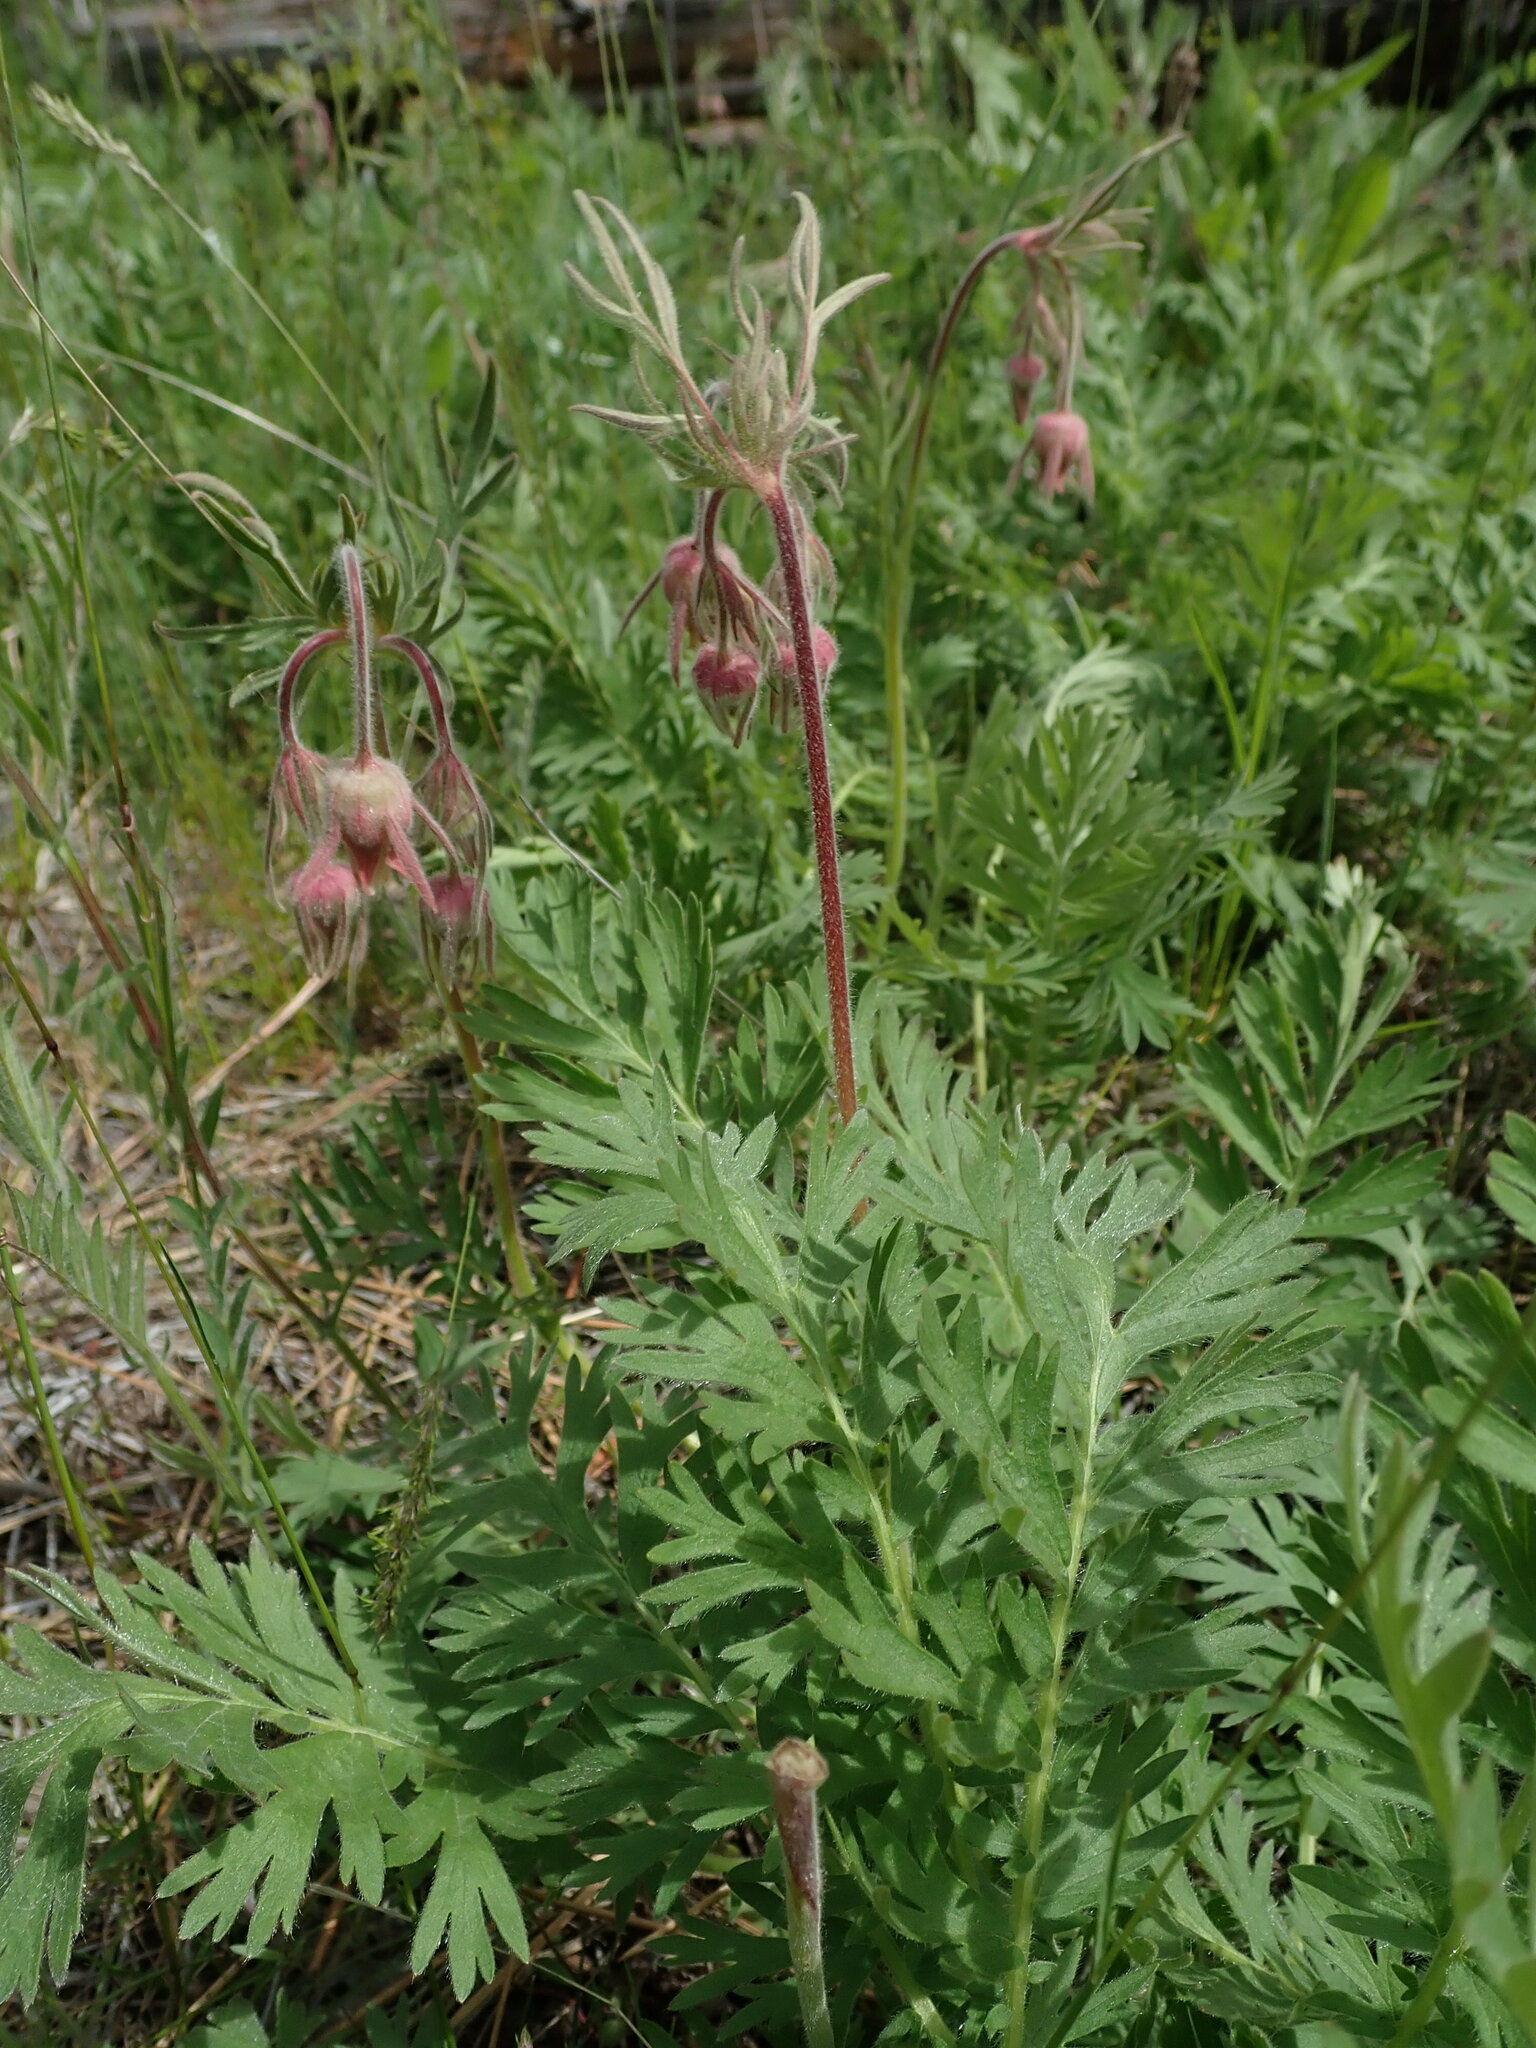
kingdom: Plantae
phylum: Tracheophyta
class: Magnoliopsida
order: Rosales
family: Rosaceae
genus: Geum
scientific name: Geum triflorum
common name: Old man's whiskers
